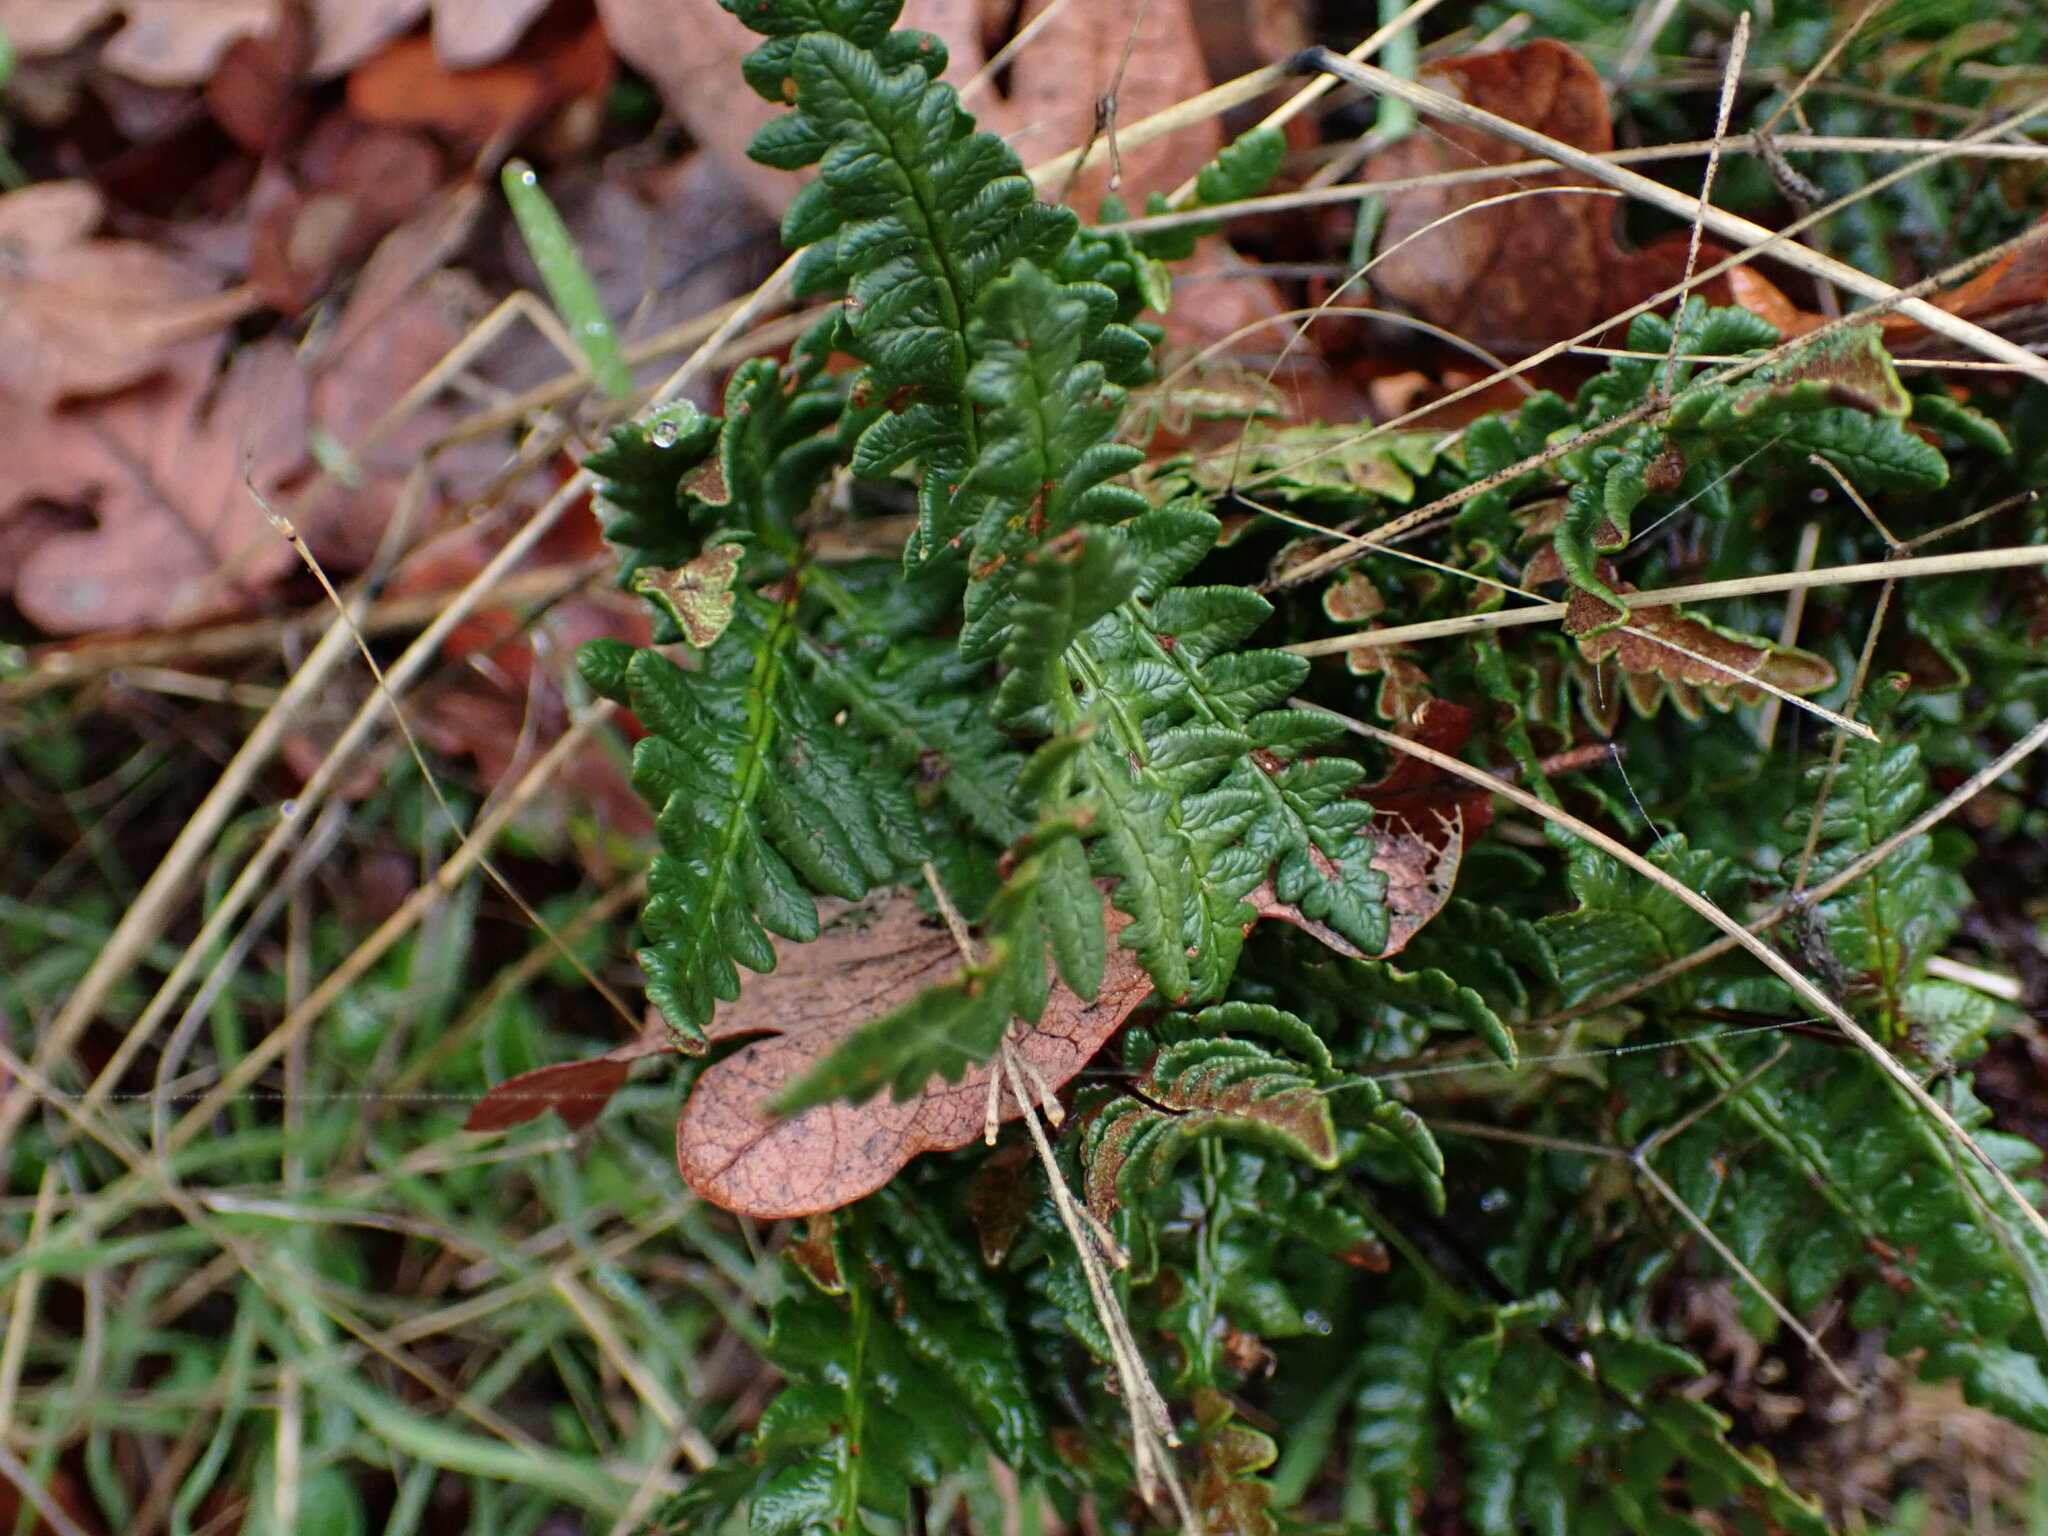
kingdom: Plantae
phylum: Tracheophyta
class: Polypodiopsida
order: Polypodiales
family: Pteridaceae
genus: Pentagramma
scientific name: Pentagramma triangularis
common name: Gold fern
